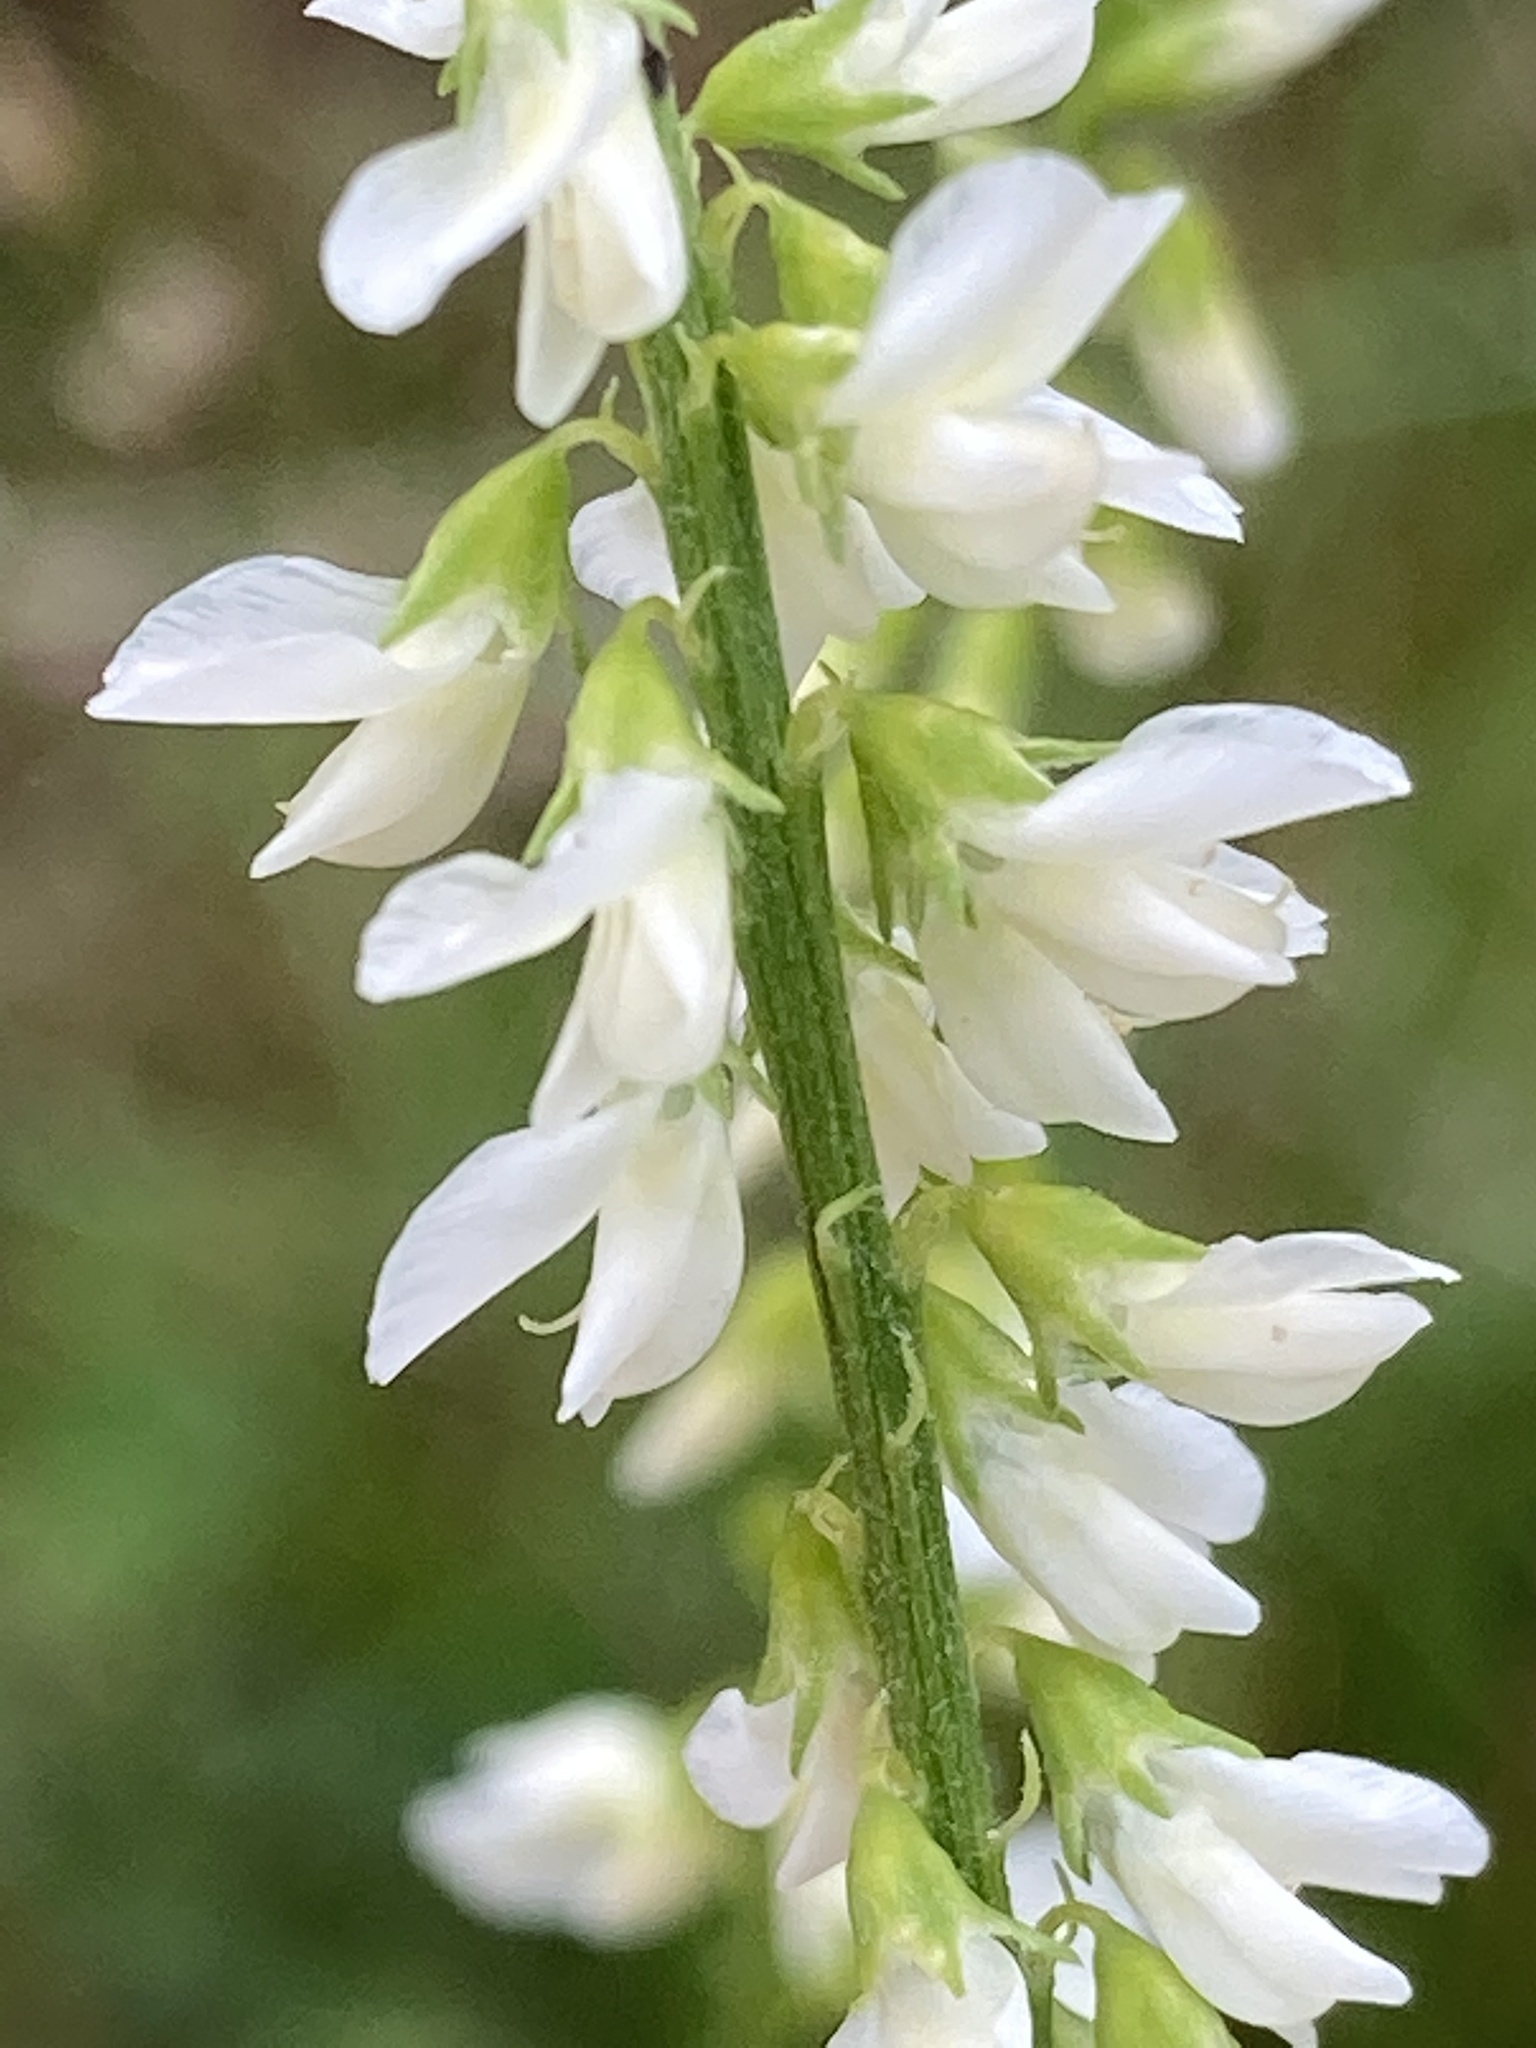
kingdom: Plantae
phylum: Tracheophyta
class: Magnoliopsida
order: Fabales
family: Fabaceae
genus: Melilotus
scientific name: Melilotus albus
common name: White melilot
